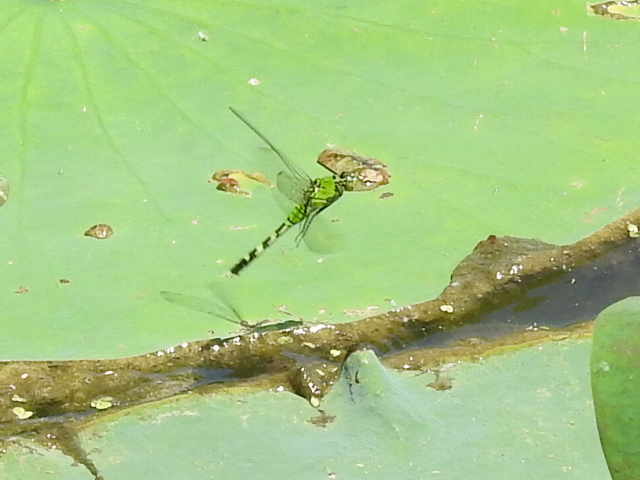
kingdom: Animalia
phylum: Arthropoda
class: Insecta
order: Odonata
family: Libellulidae
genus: Erythemis
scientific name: Erythemis simplicicollis
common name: Eastern pondhawk
